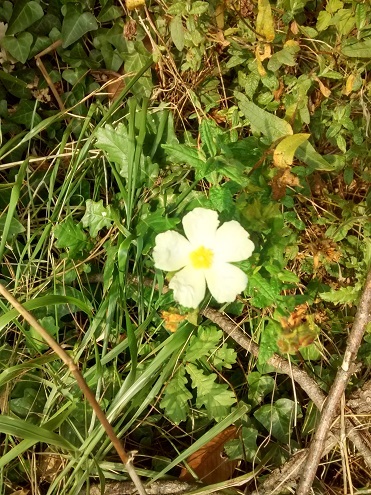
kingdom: Plantae
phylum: Tracheophyta
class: Magnoliopsida
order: Malvales
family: Cistaceae
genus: Cistus
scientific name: Cistus inflatus
